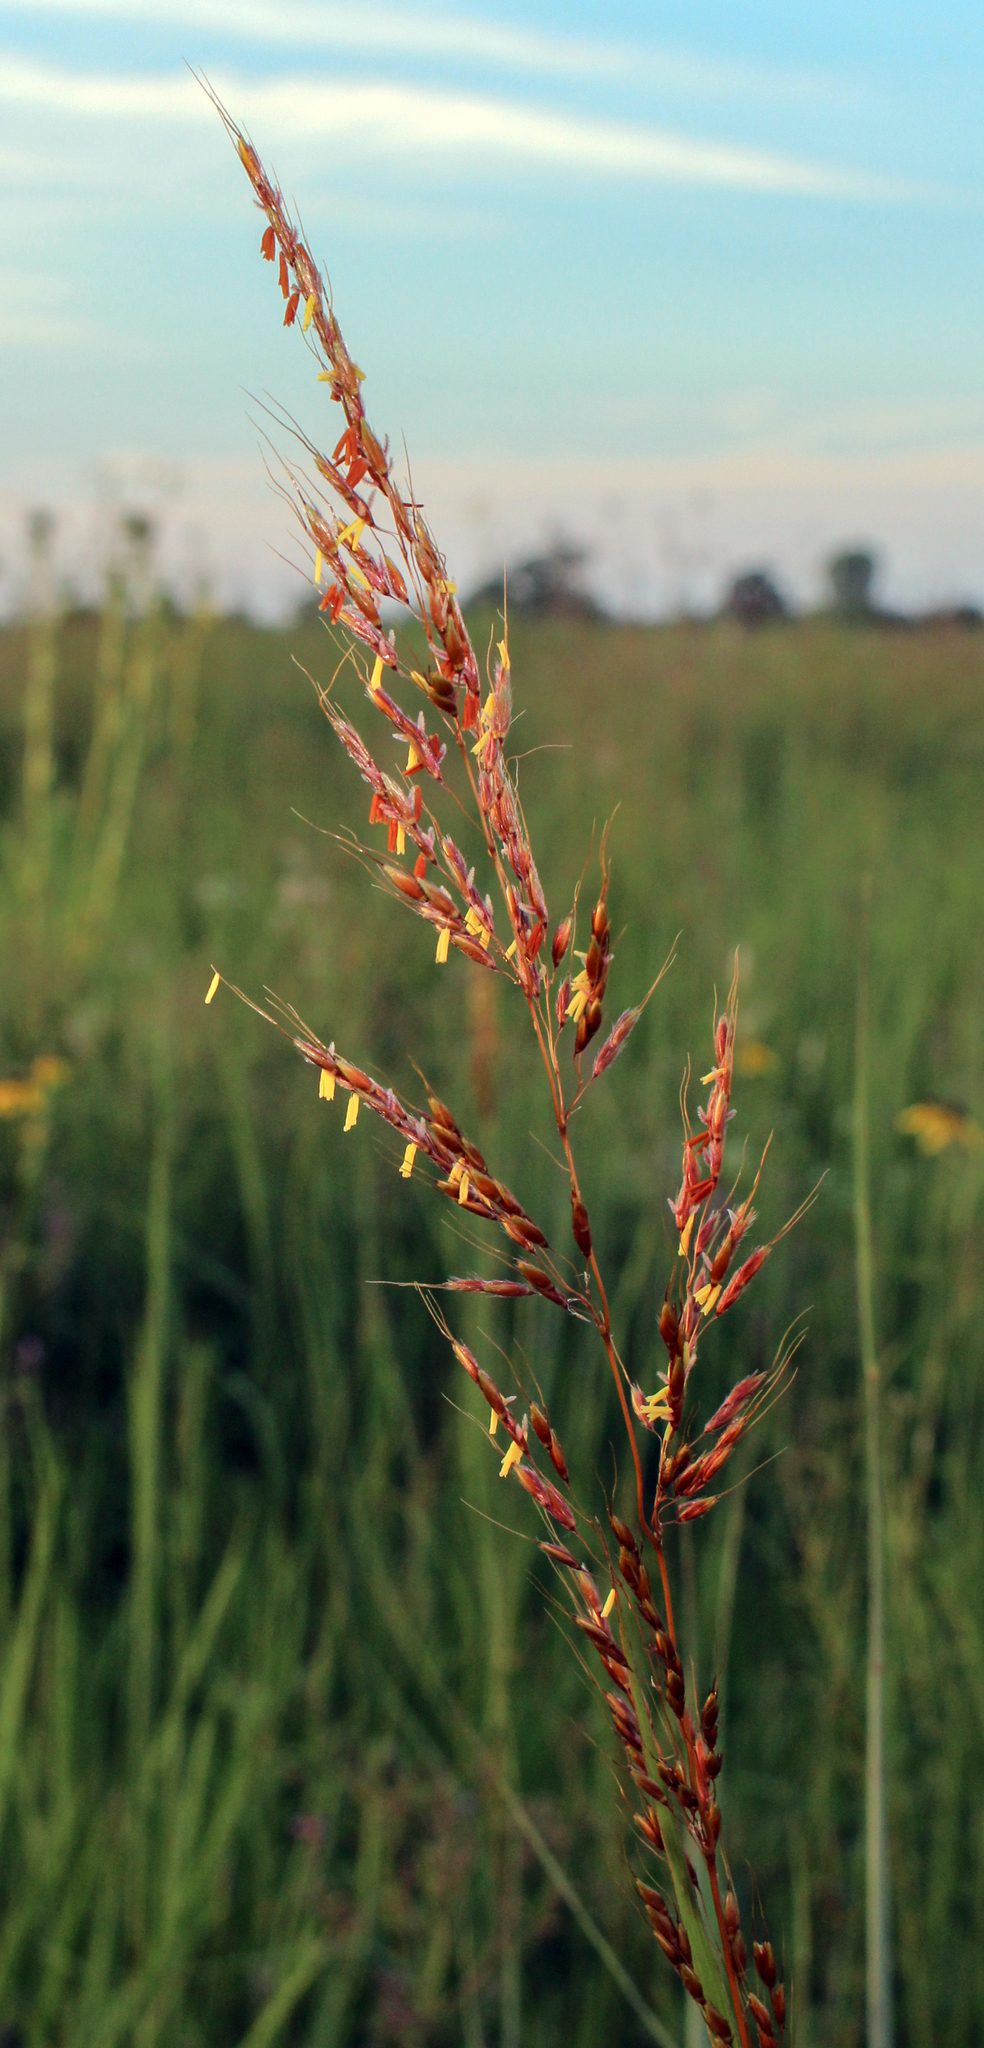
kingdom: Plantae
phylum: Tracheophyta
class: Liliopsida
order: Poales
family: Poaceae
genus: Sorghastrum
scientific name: Sorghastrum nutans
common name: Indian grass
